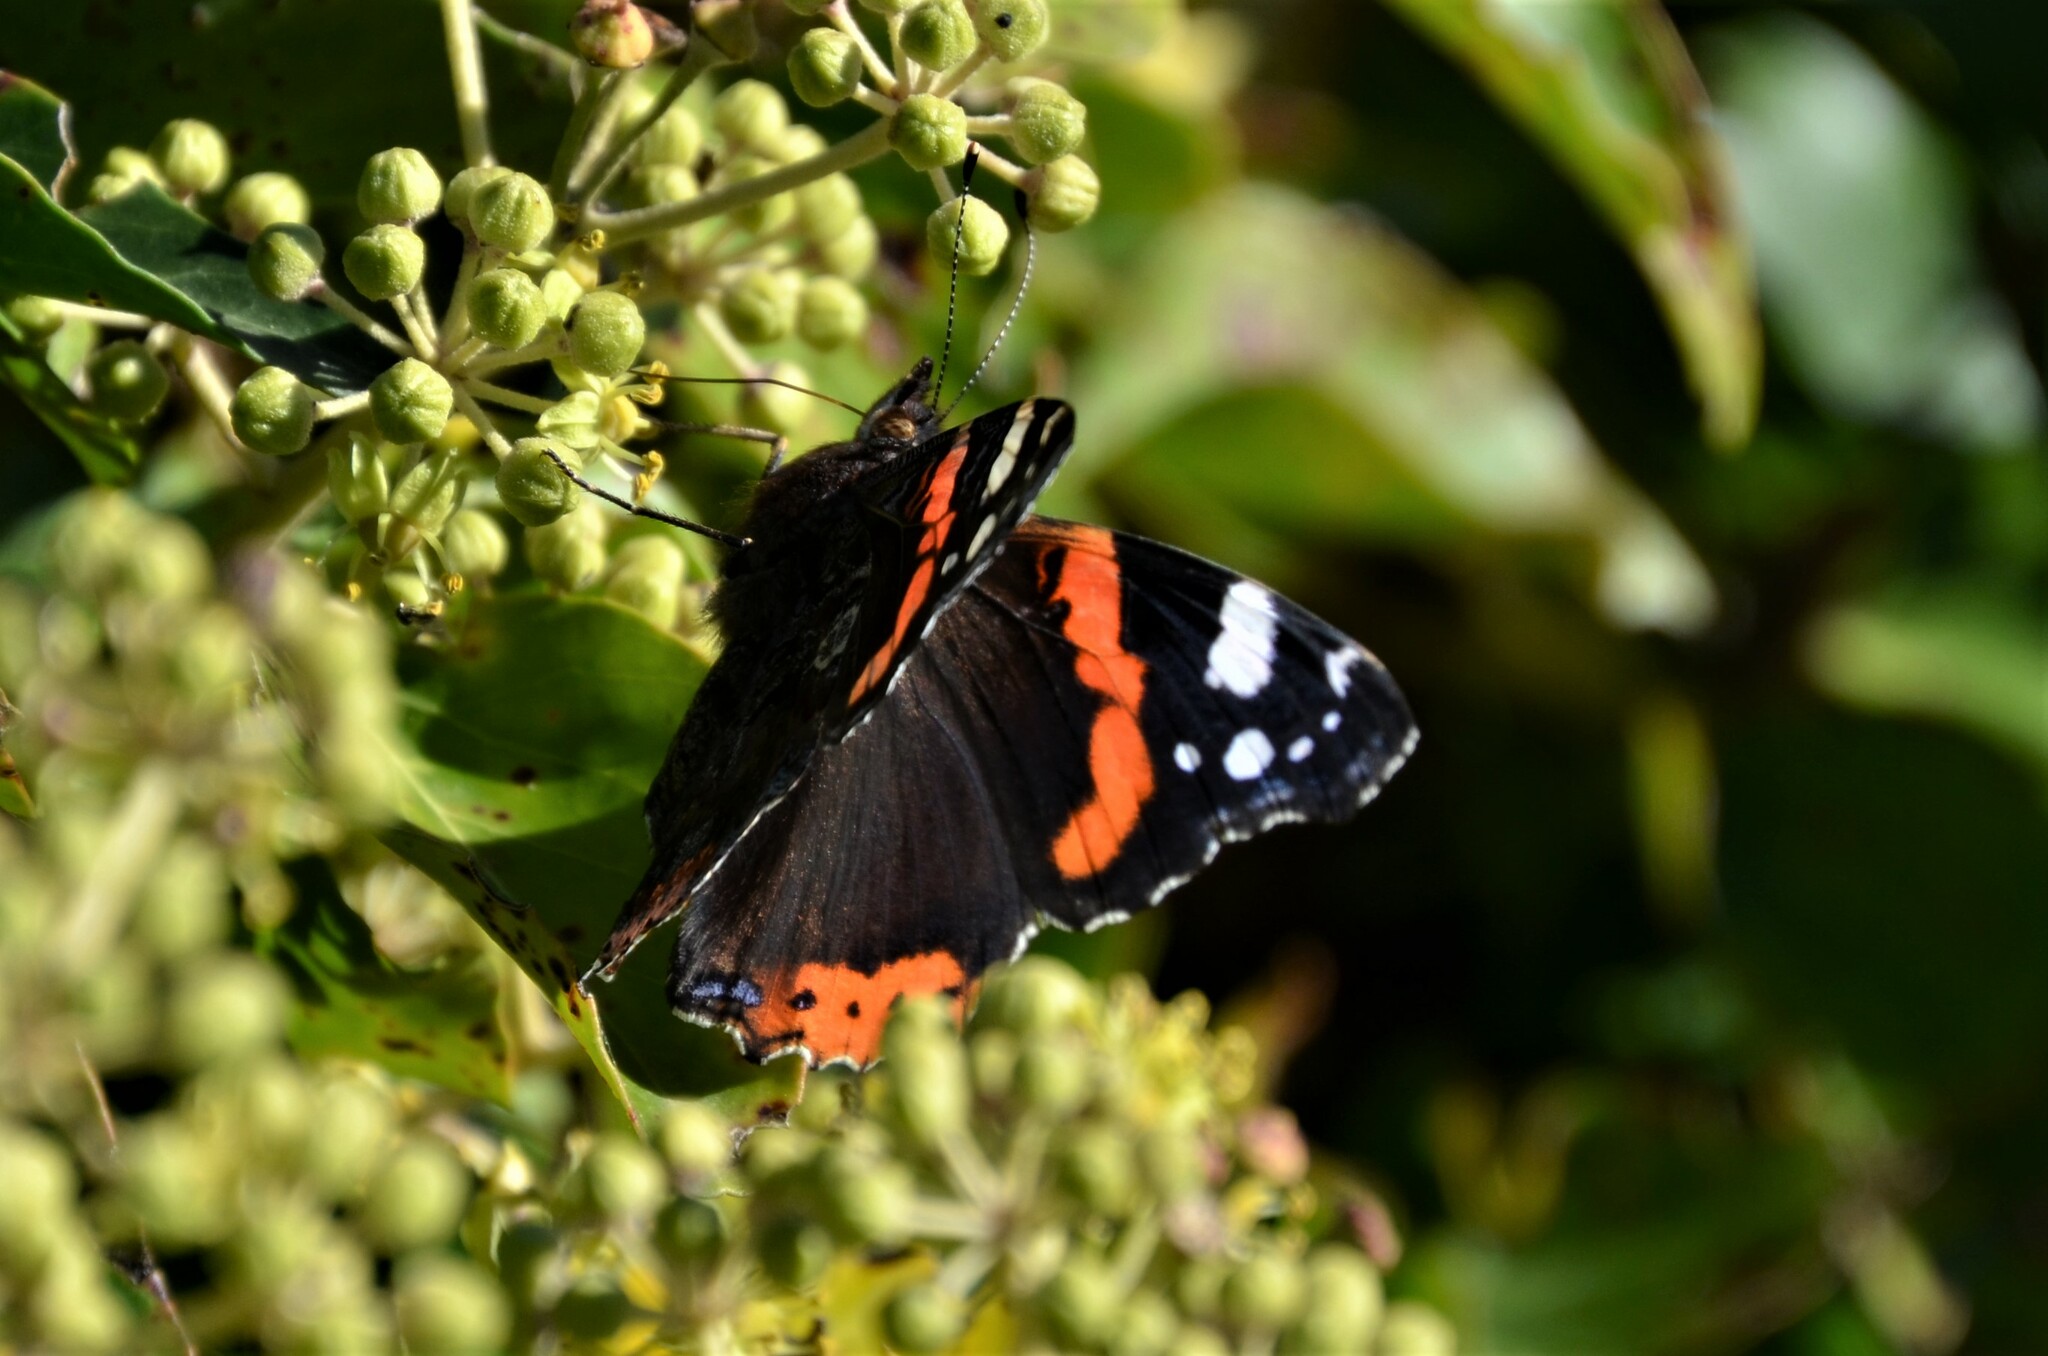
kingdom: Animalia
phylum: Arthropoda
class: Insecta
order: Lepidoptera
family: Nymphalidae
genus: Vanessa
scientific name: Vanessa atalanta
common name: Red admiral
